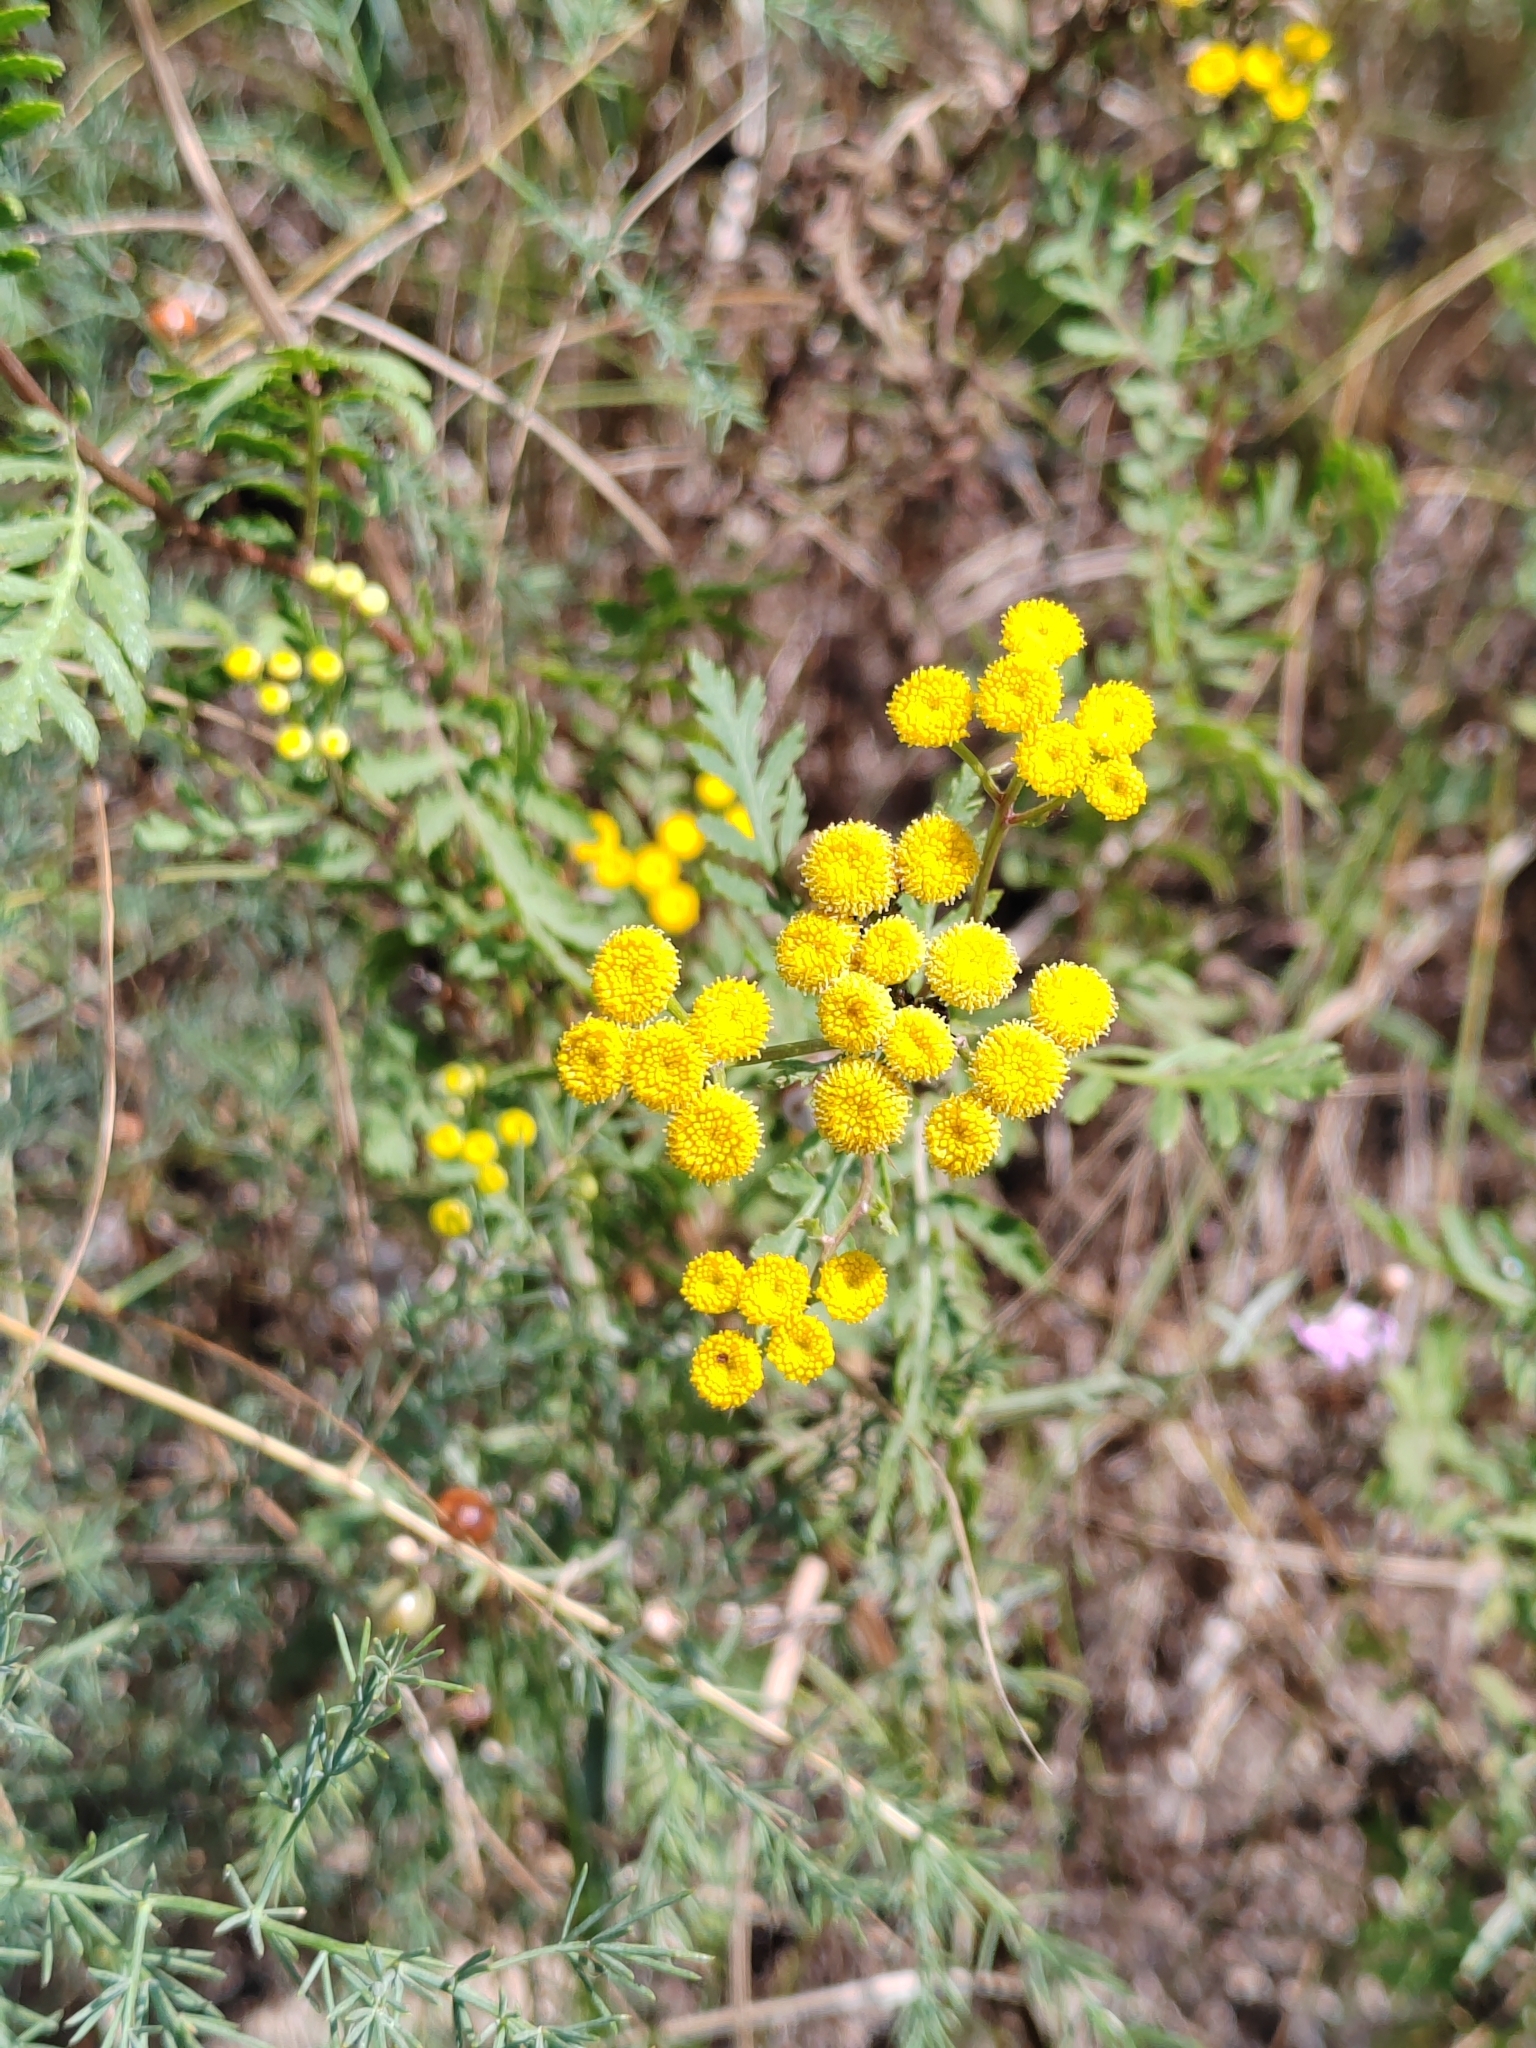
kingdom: Plantae
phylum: Tracheophyta
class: Magnoliopsida
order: Asterales
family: Asteraceae
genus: Tanacetum
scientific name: Tanacetum vulgare
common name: Common tansy
